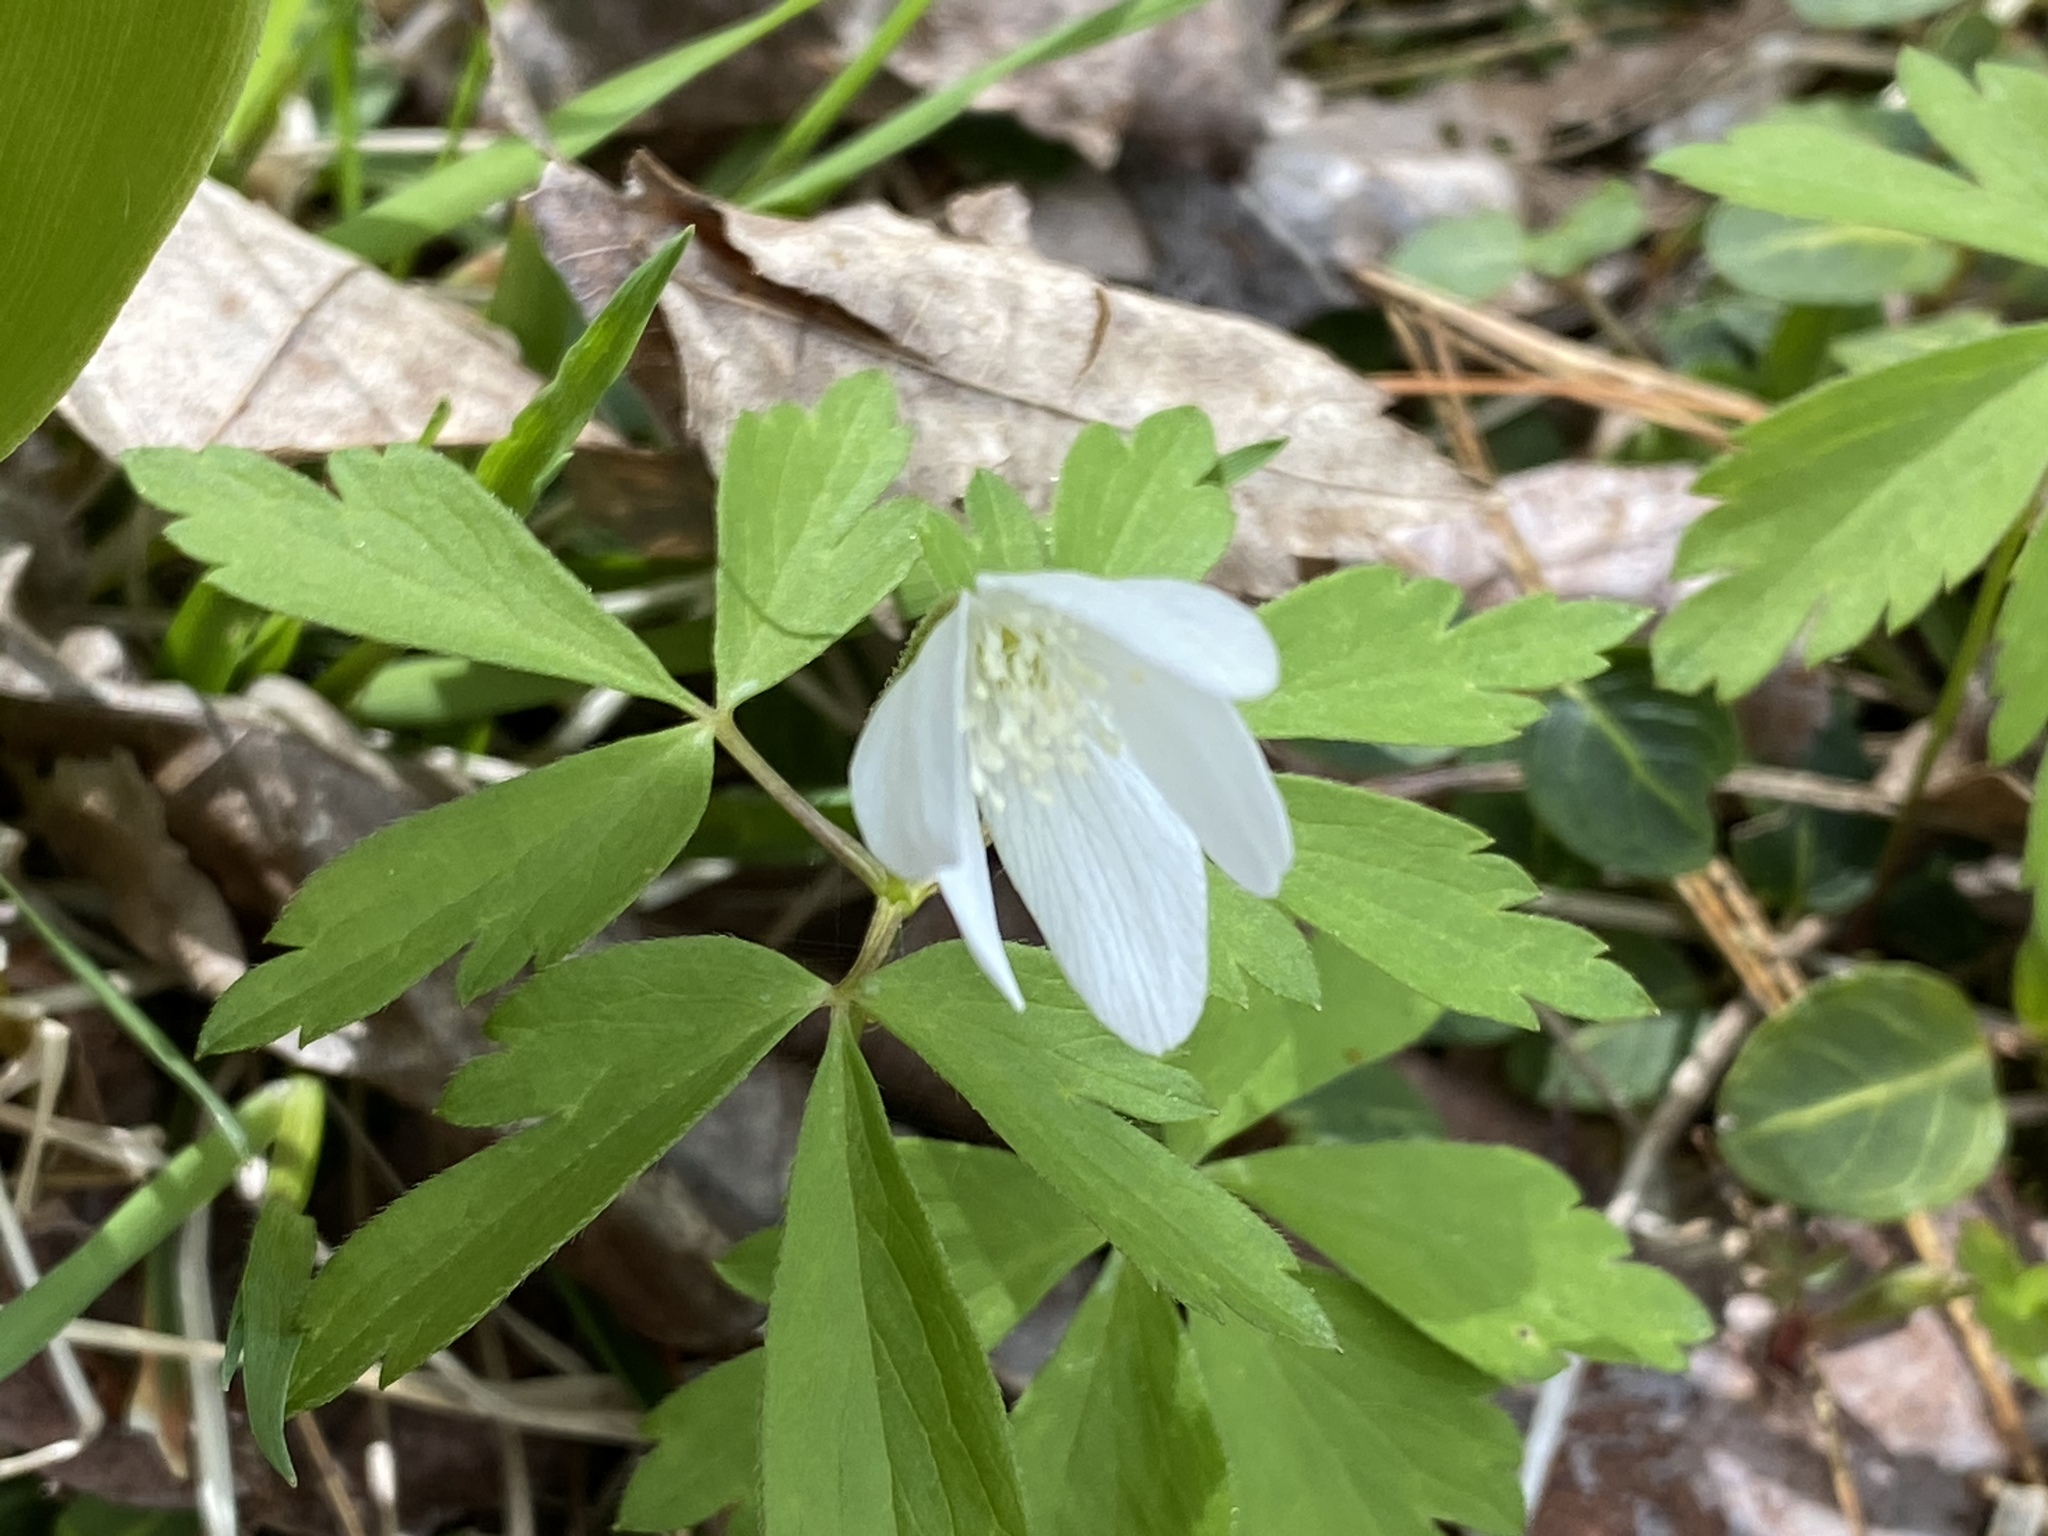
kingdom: Plantae
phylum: Tracheophyta
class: Magnoliopsida
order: Ranunculales
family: Ranunculaceae
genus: Anemone
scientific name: Anemone quinquefolia
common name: Wood anemone
